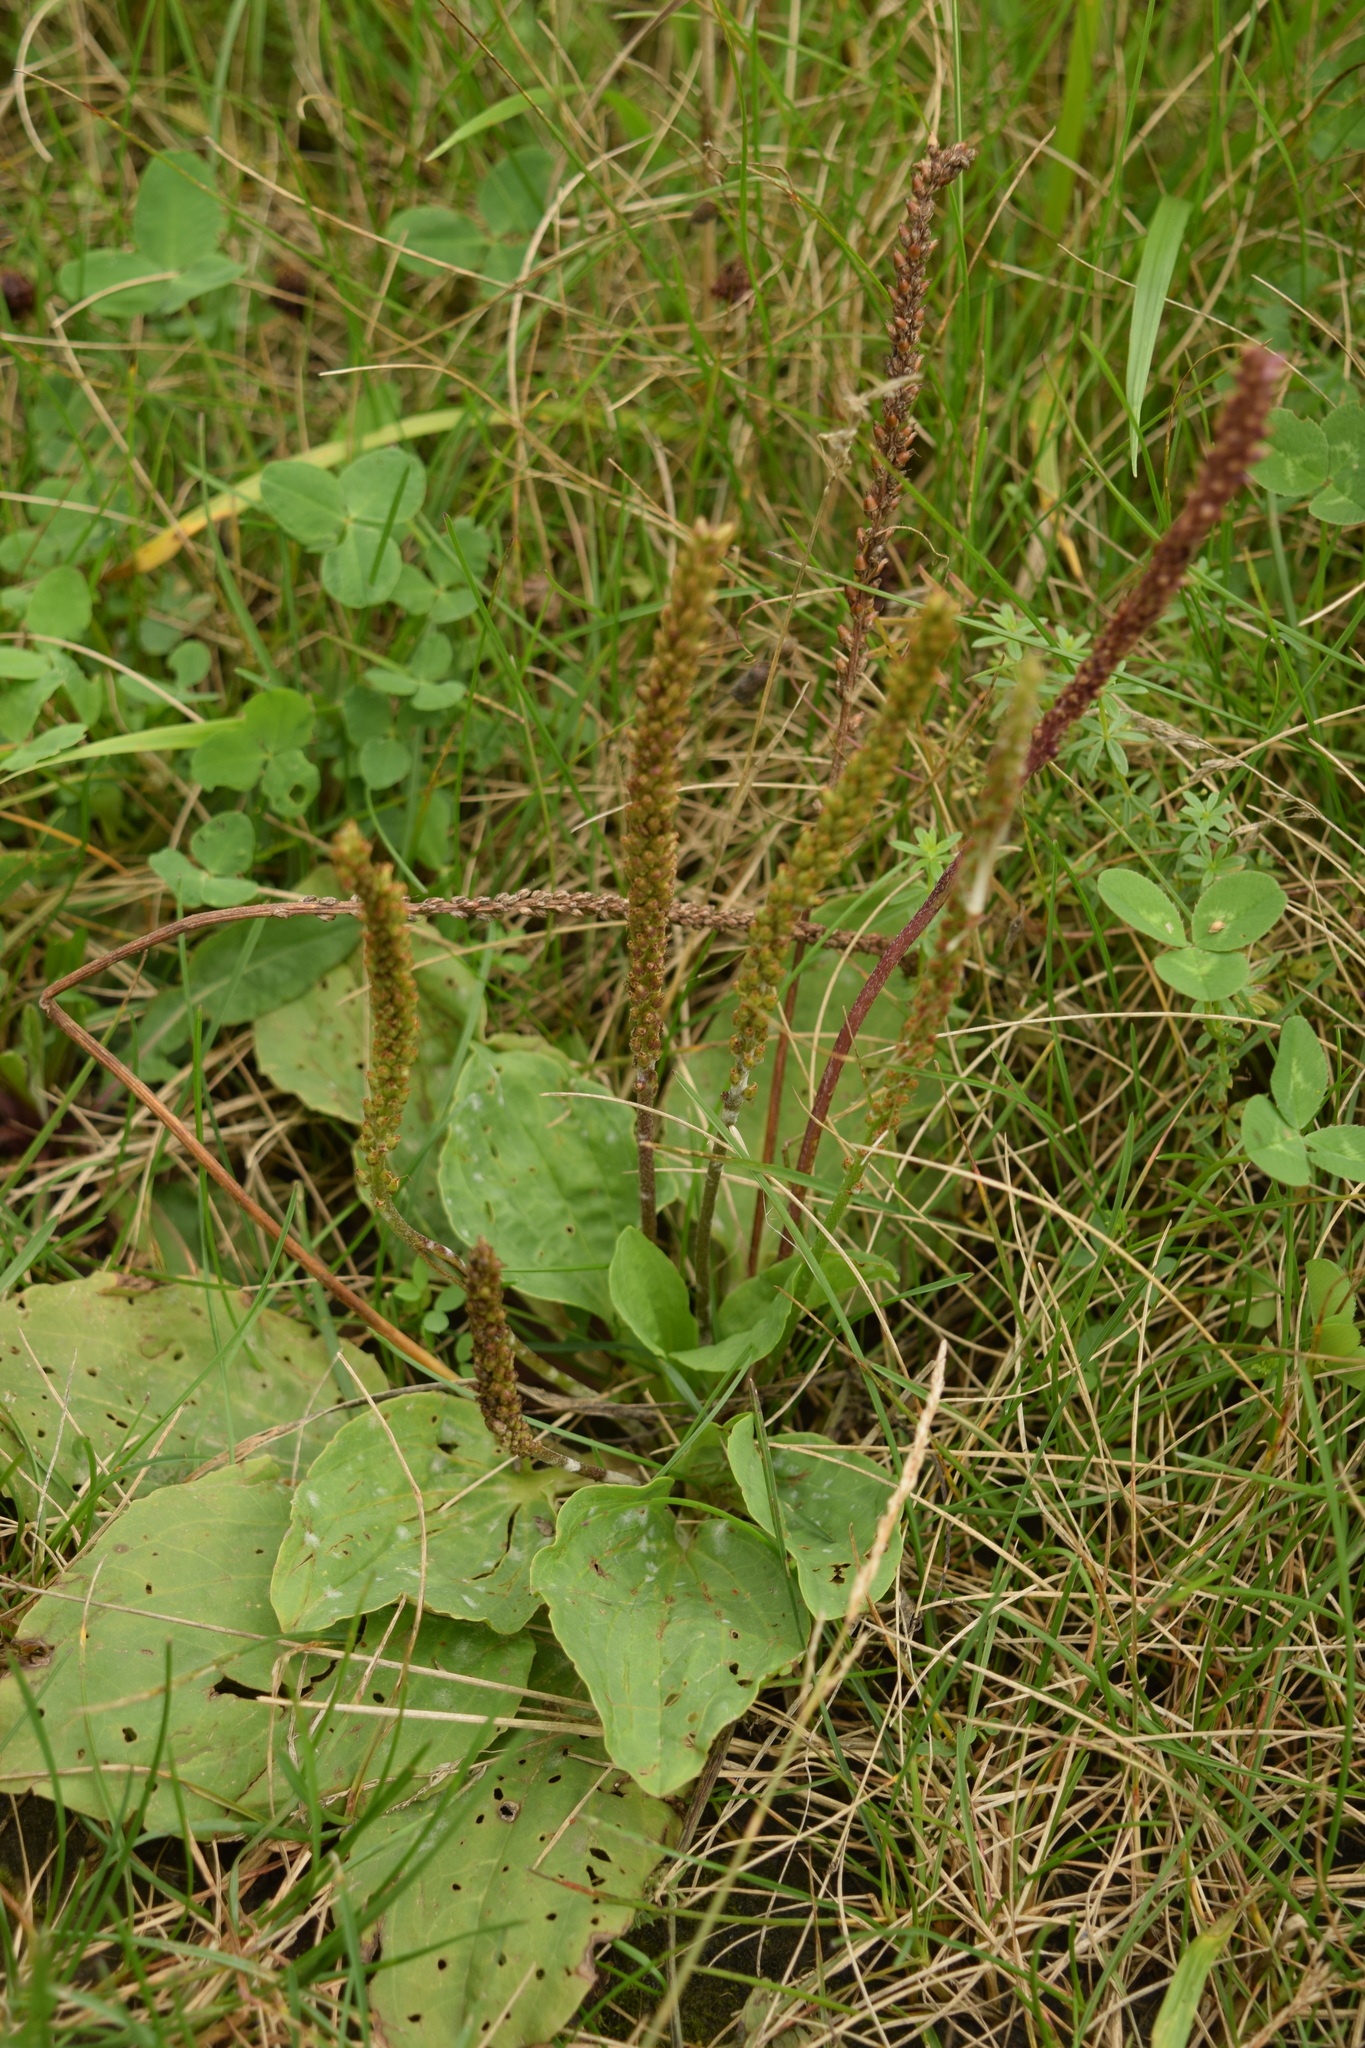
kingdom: Plantae
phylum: Tracheophyta
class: Magnoliopsida
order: Lamiales
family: Plantaginaceae
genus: Plantago
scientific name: Plantago major
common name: Common plantain
